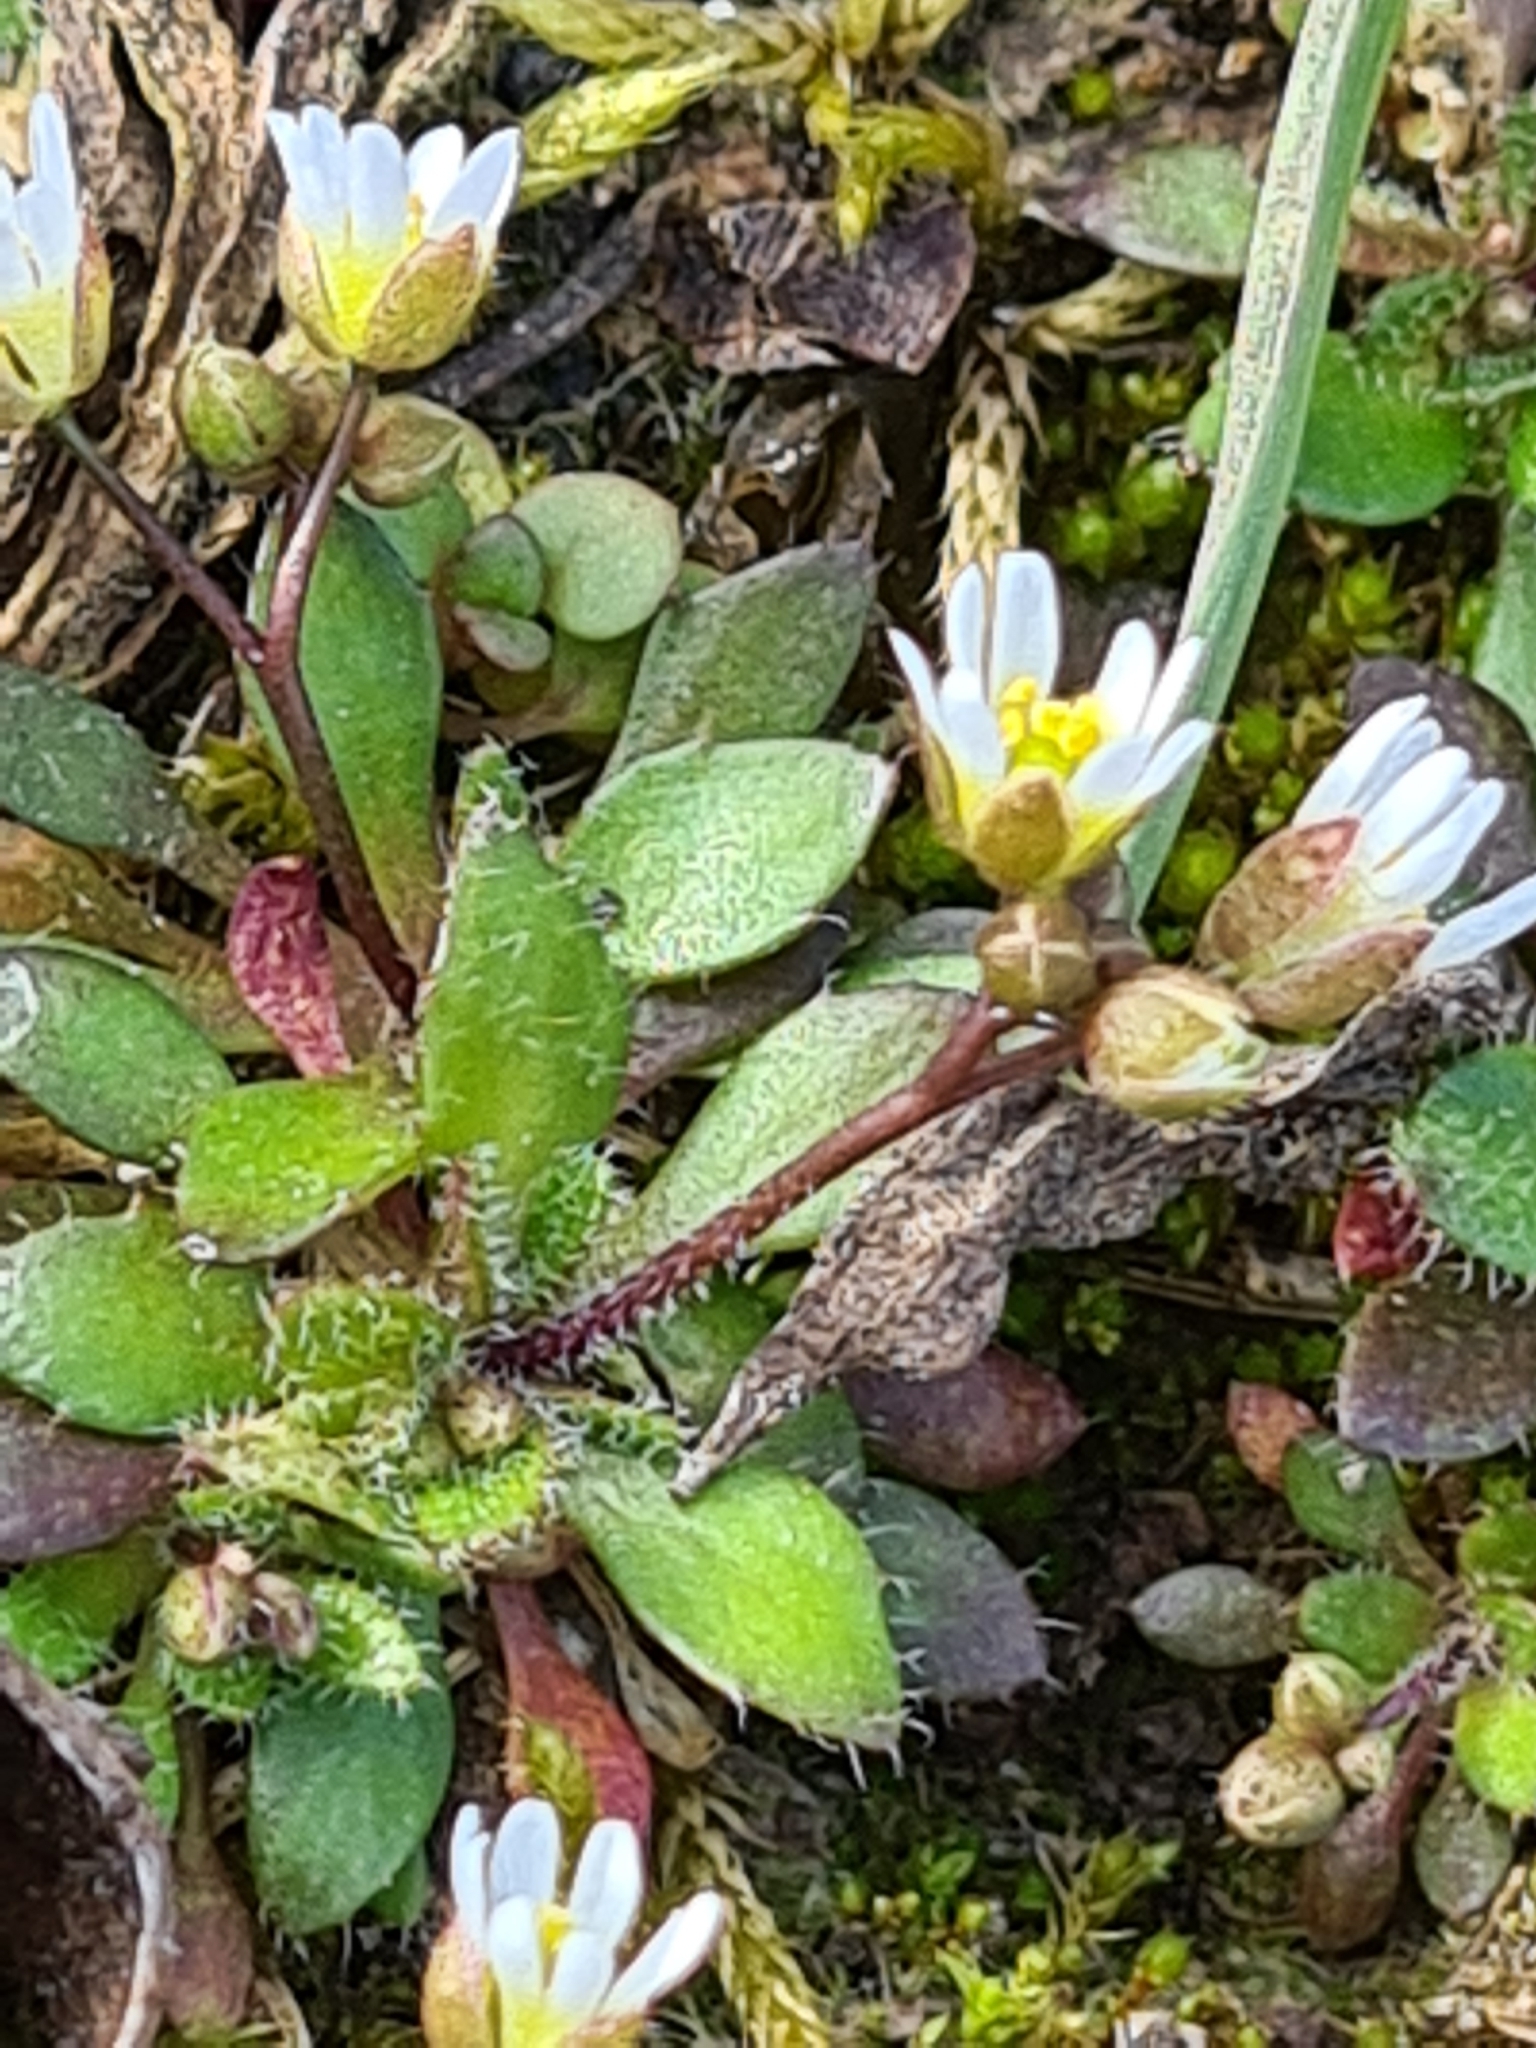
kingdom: Plantae
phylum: Tracheophyta
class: Magnoliopsida
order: Brassicales
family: Brassicaceae
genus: Draba
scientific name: Draba verna
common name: Spring draba
